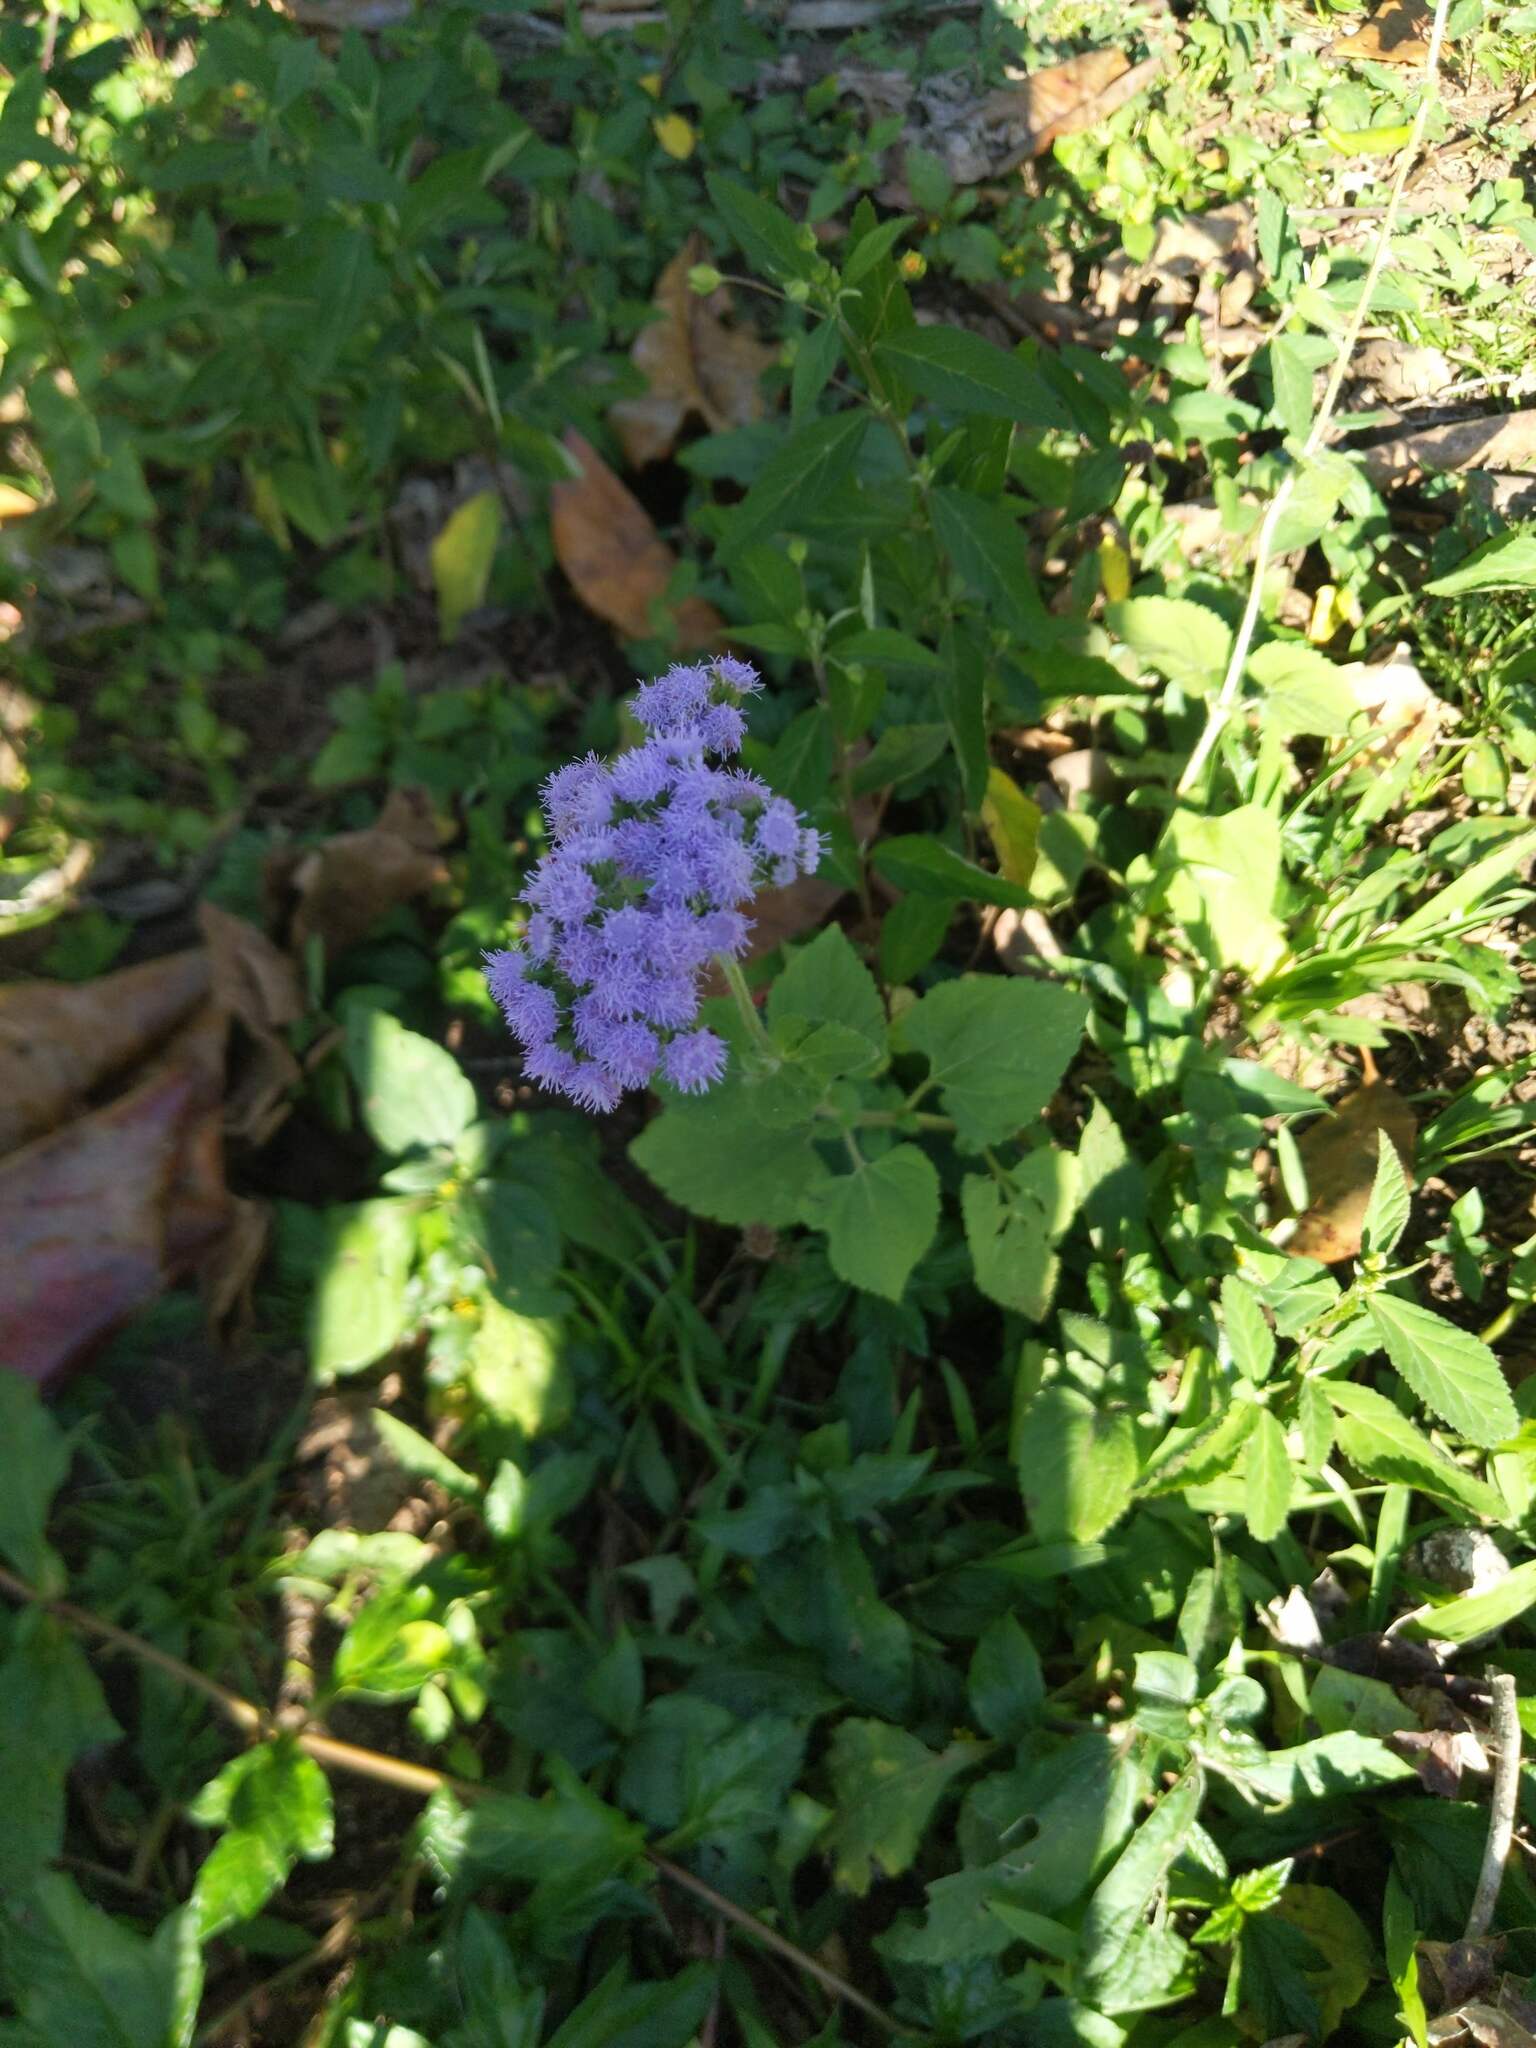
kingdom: Plantae
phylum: Tracheophyta
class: Magnoliopsida
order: Asterales
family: Asteraceae
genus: Ageratum
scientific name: Ageratum houstonianum
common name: Bluemink
